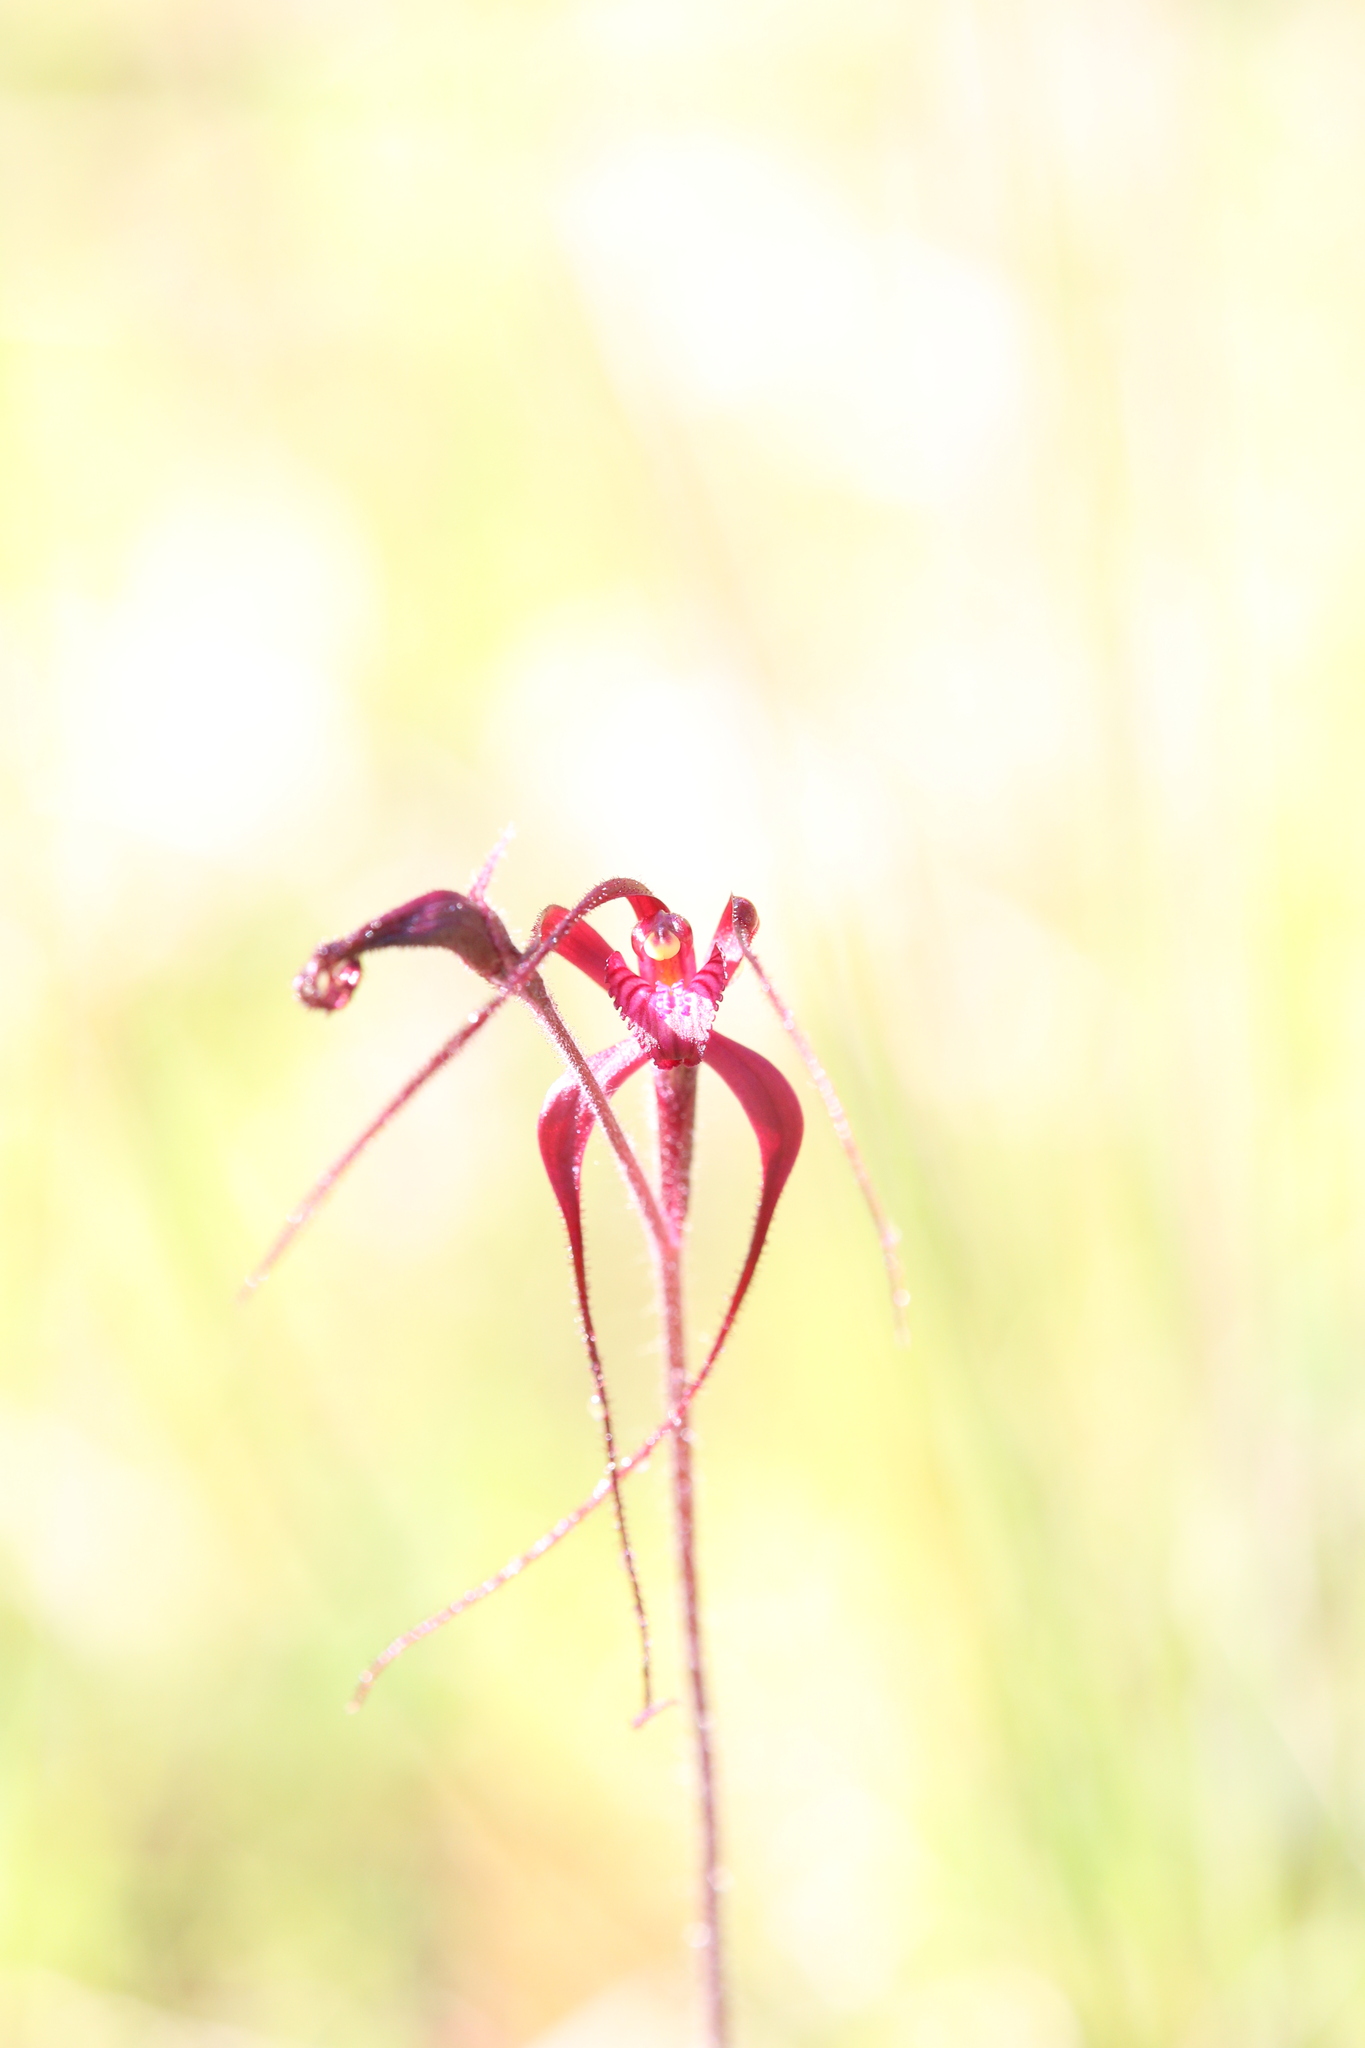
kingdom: Plantae
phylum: Tracheophyta
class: Liliopsida
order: Asparagales
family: Orchidaceae
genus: Caladenia
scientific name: Caladenia filifera
